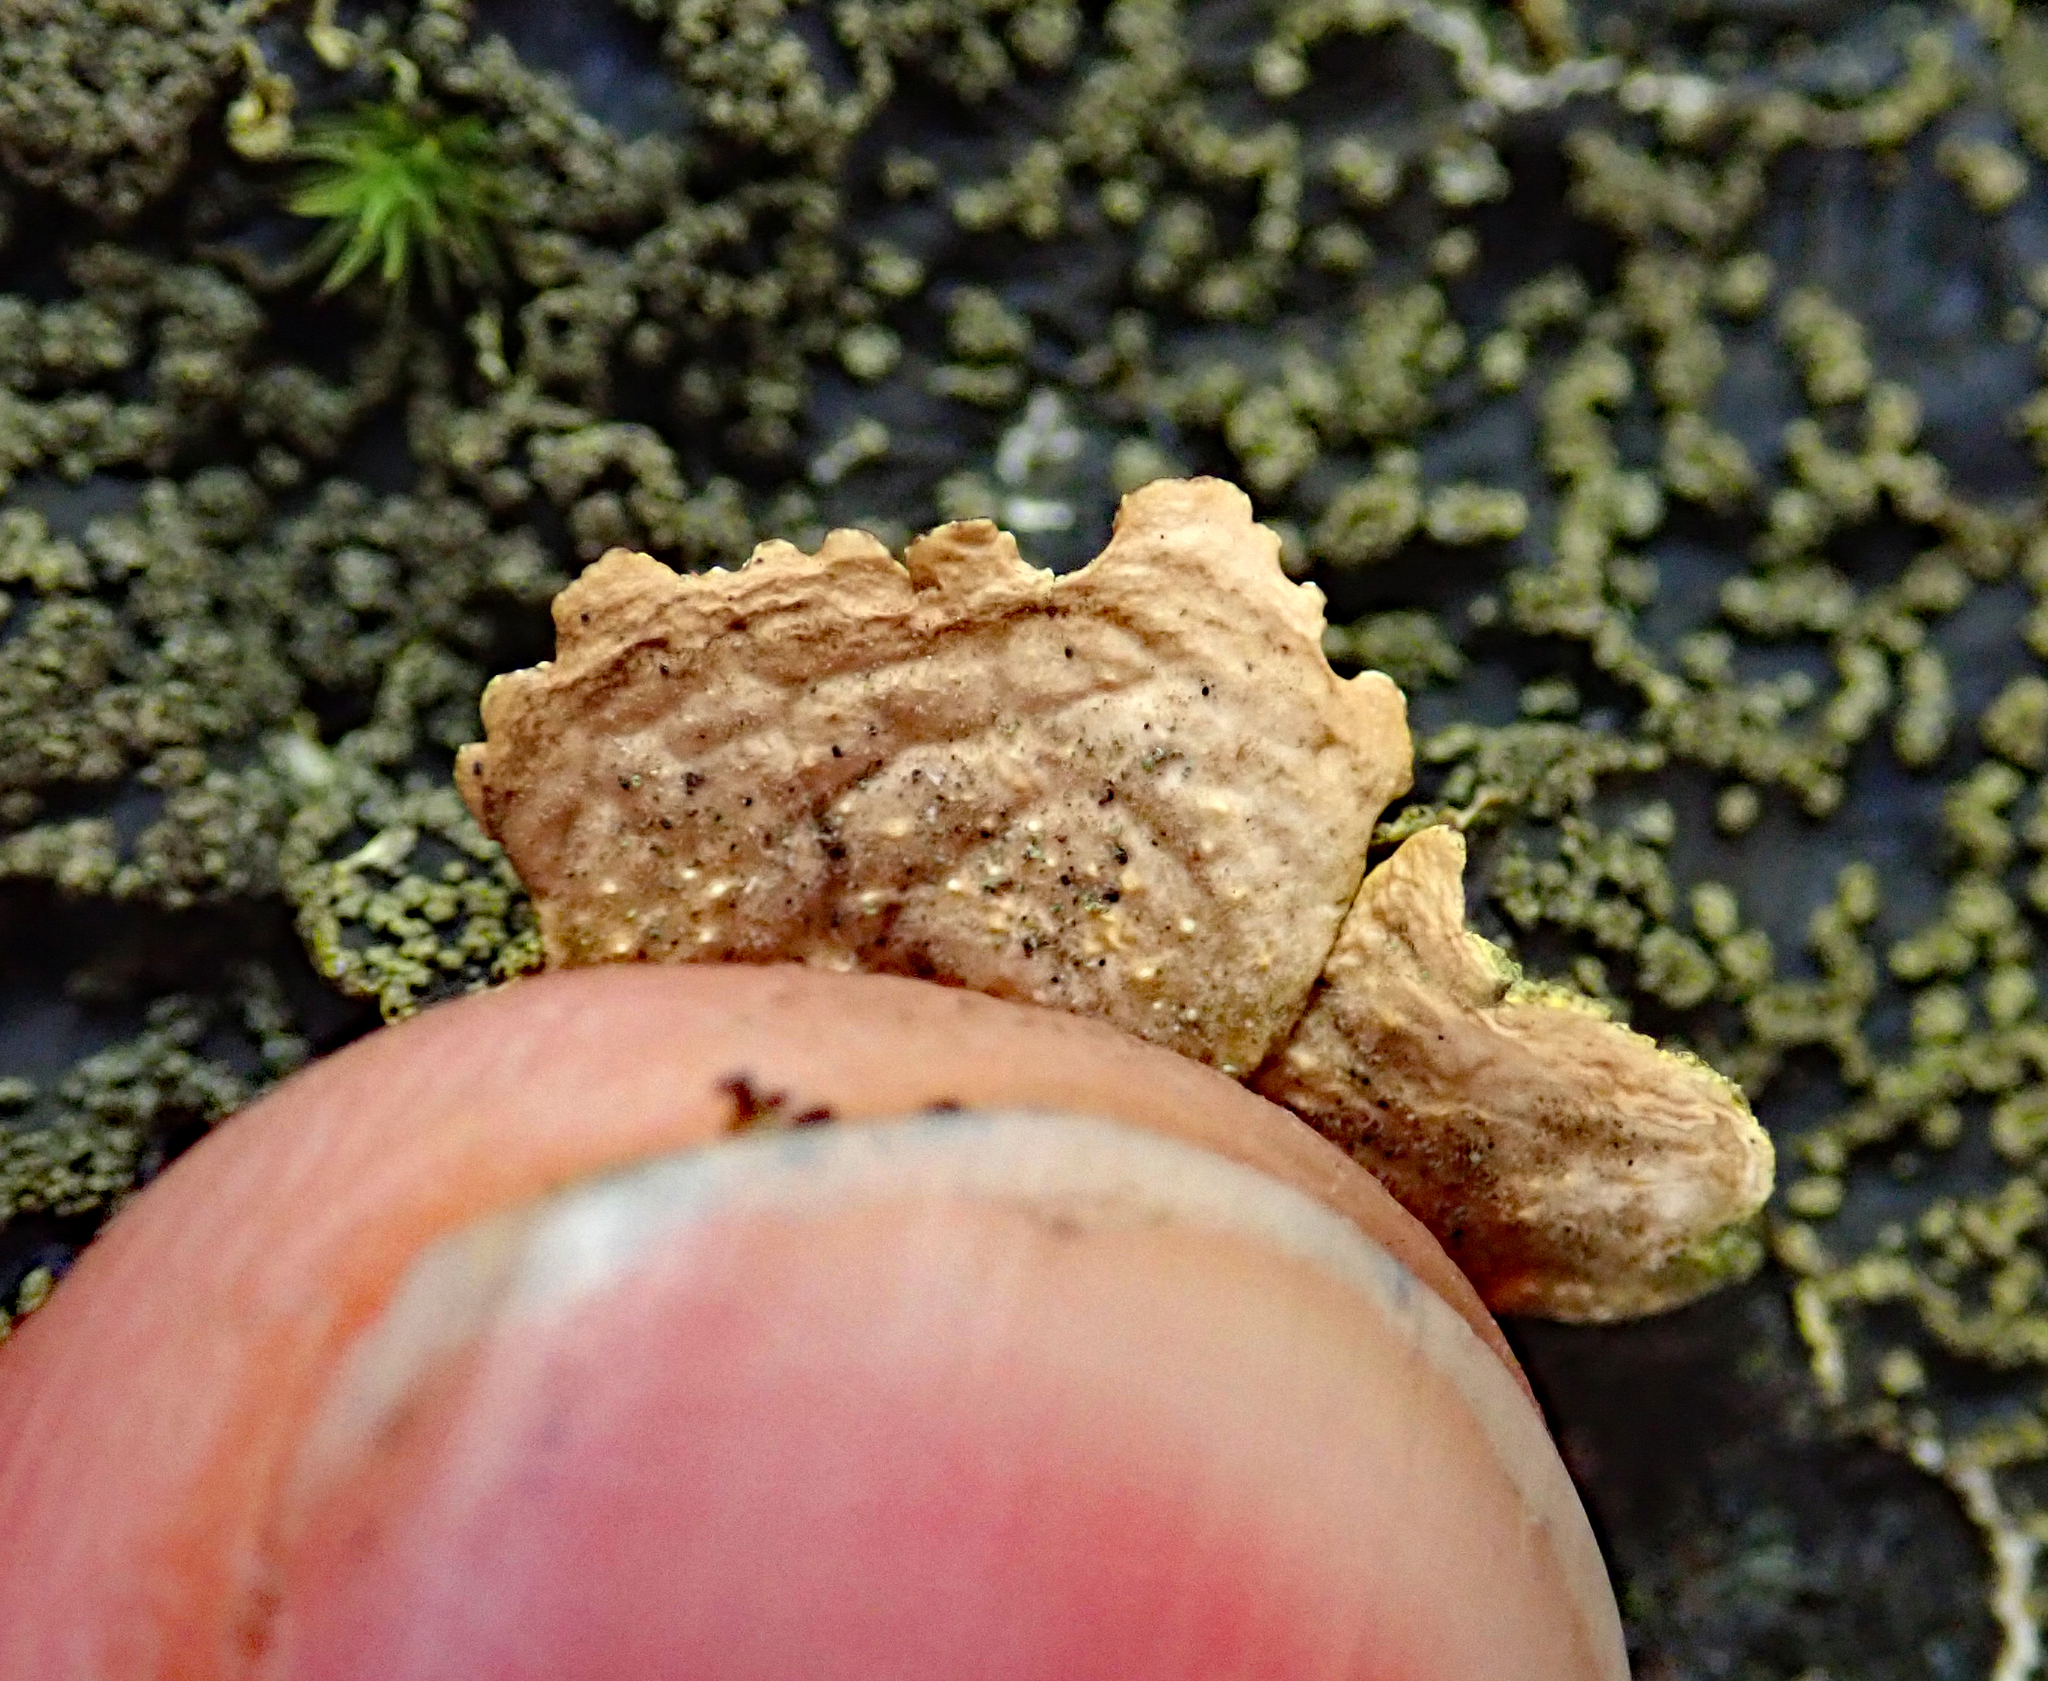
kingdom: Fungi
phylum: Ascomycota
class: Lecanoromycetes
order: Peltigerales
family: Lobariaceae
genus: Pseudocyphellaria
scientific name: Pseudocyphellaria crocata
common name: Golden specklebelly
